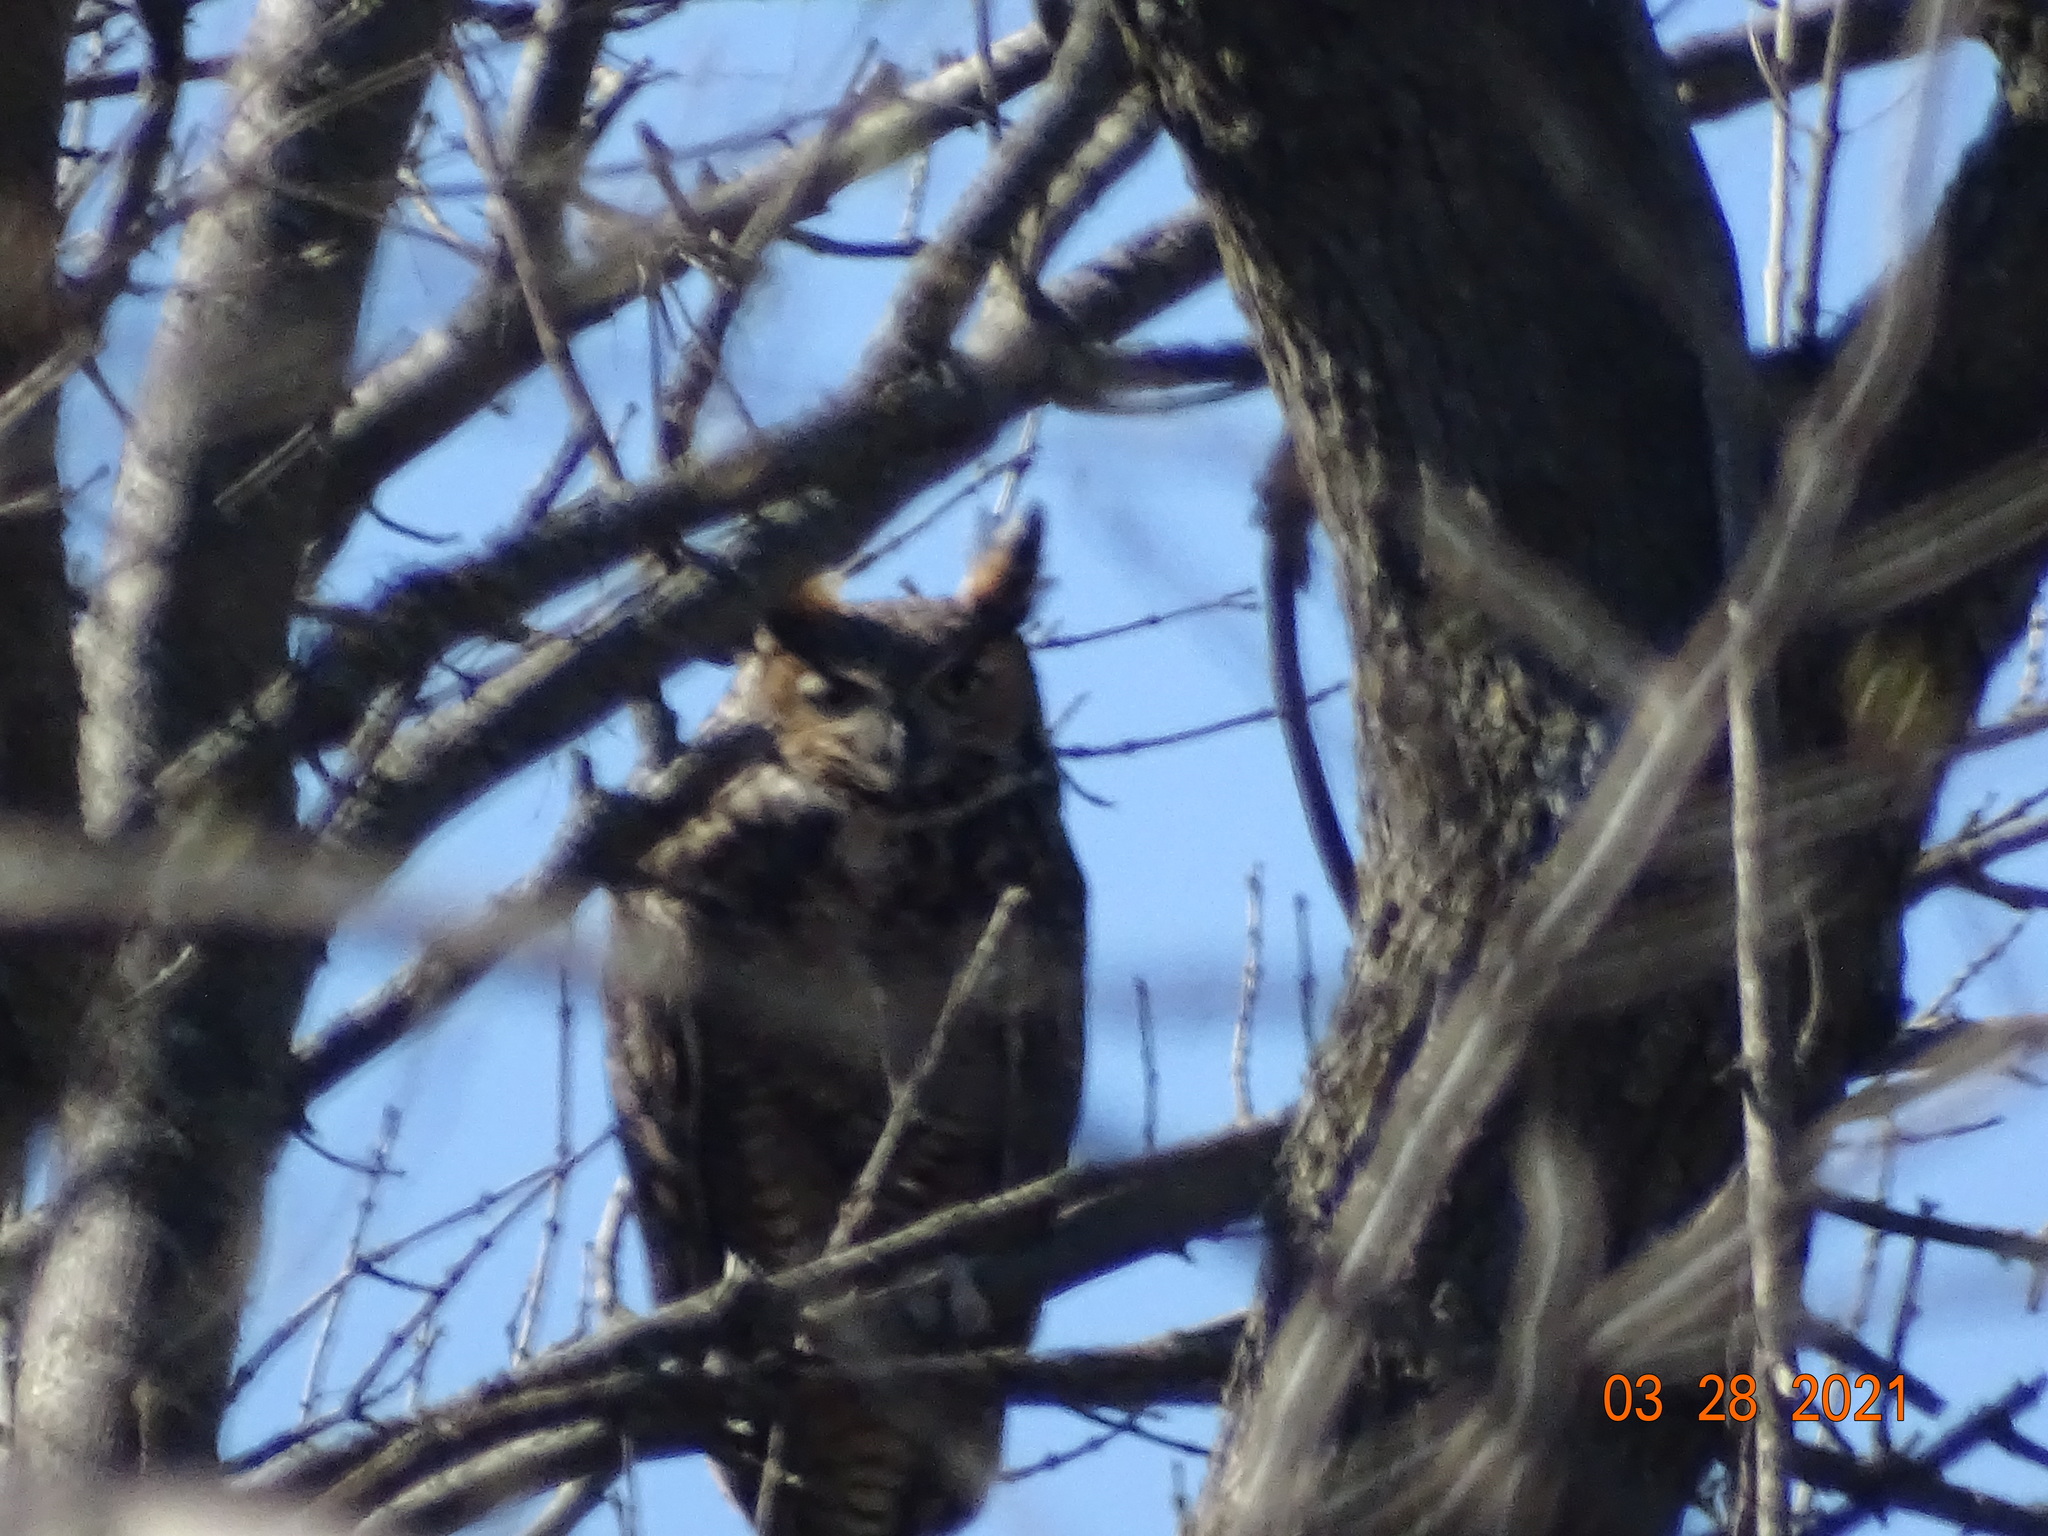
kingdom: Animalia
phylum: Chordata
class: Aves
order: Strigiformes
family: Strigidae
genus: Bubo
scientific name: Bubo virginianus
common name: Great horned owl
